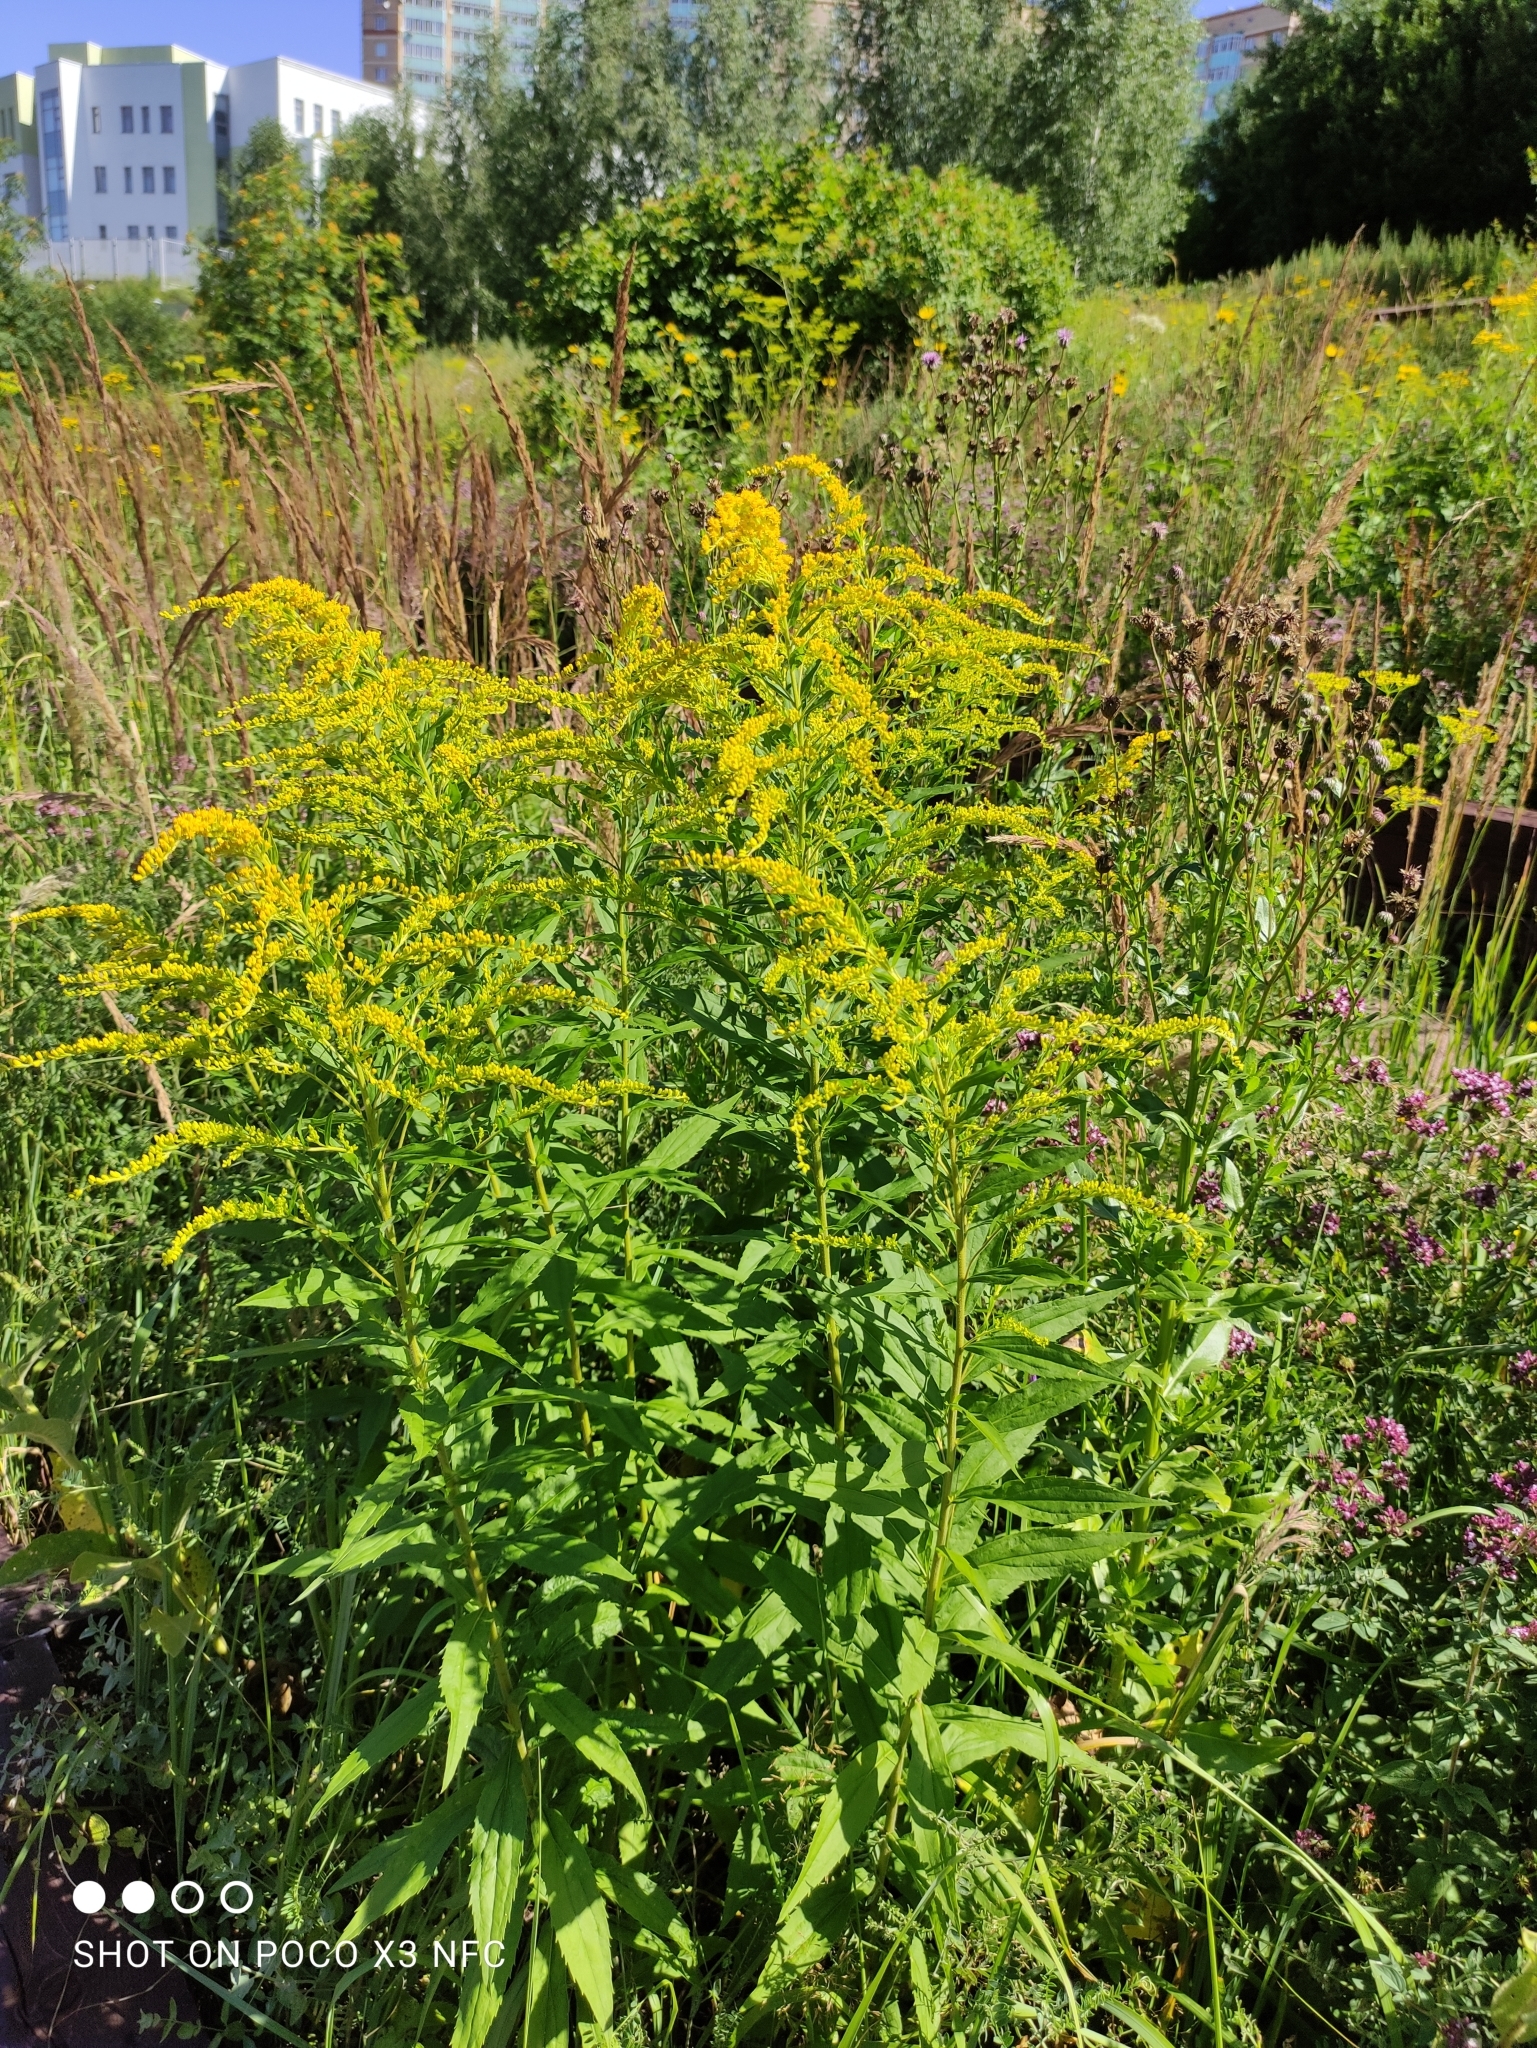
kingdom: Plantae
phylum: Tracheophyta
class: Magnoliopsida
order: Asterales
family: Asteraceae
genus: Solidago
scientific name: Solidago canadensis
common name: Canada goldenrod
